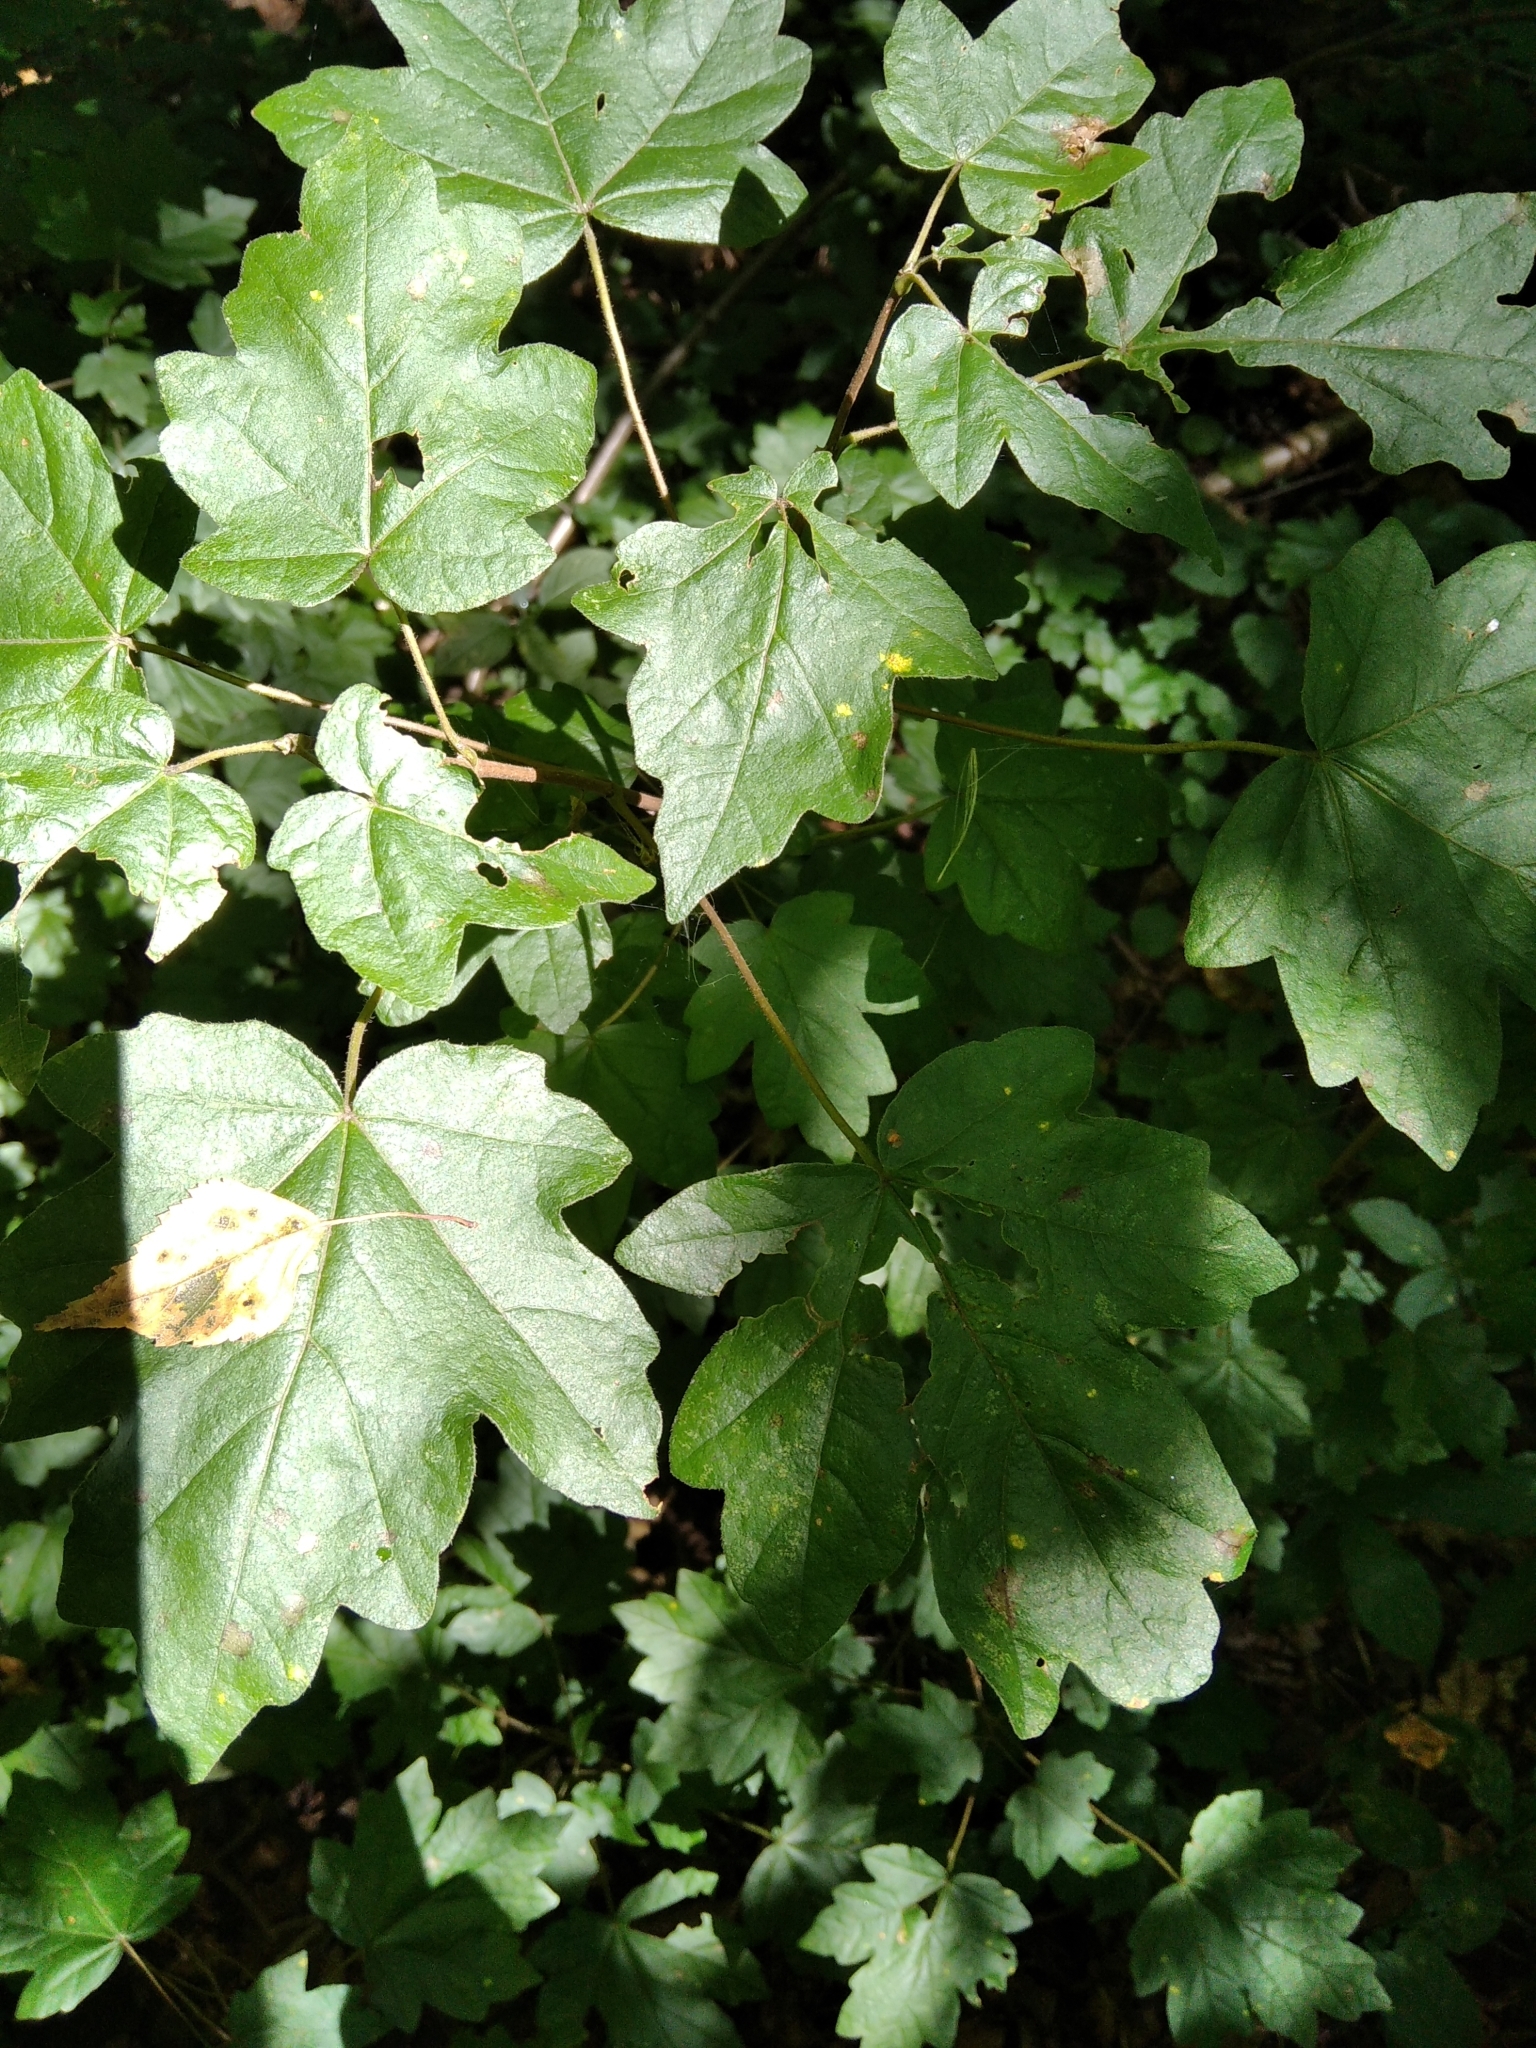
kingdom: Plantae
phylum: Tracheophyta
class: Magnoliopsida
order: Sapindales
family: Sapindaceae
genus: Acer
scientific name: Acer campestre
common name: Field maple
